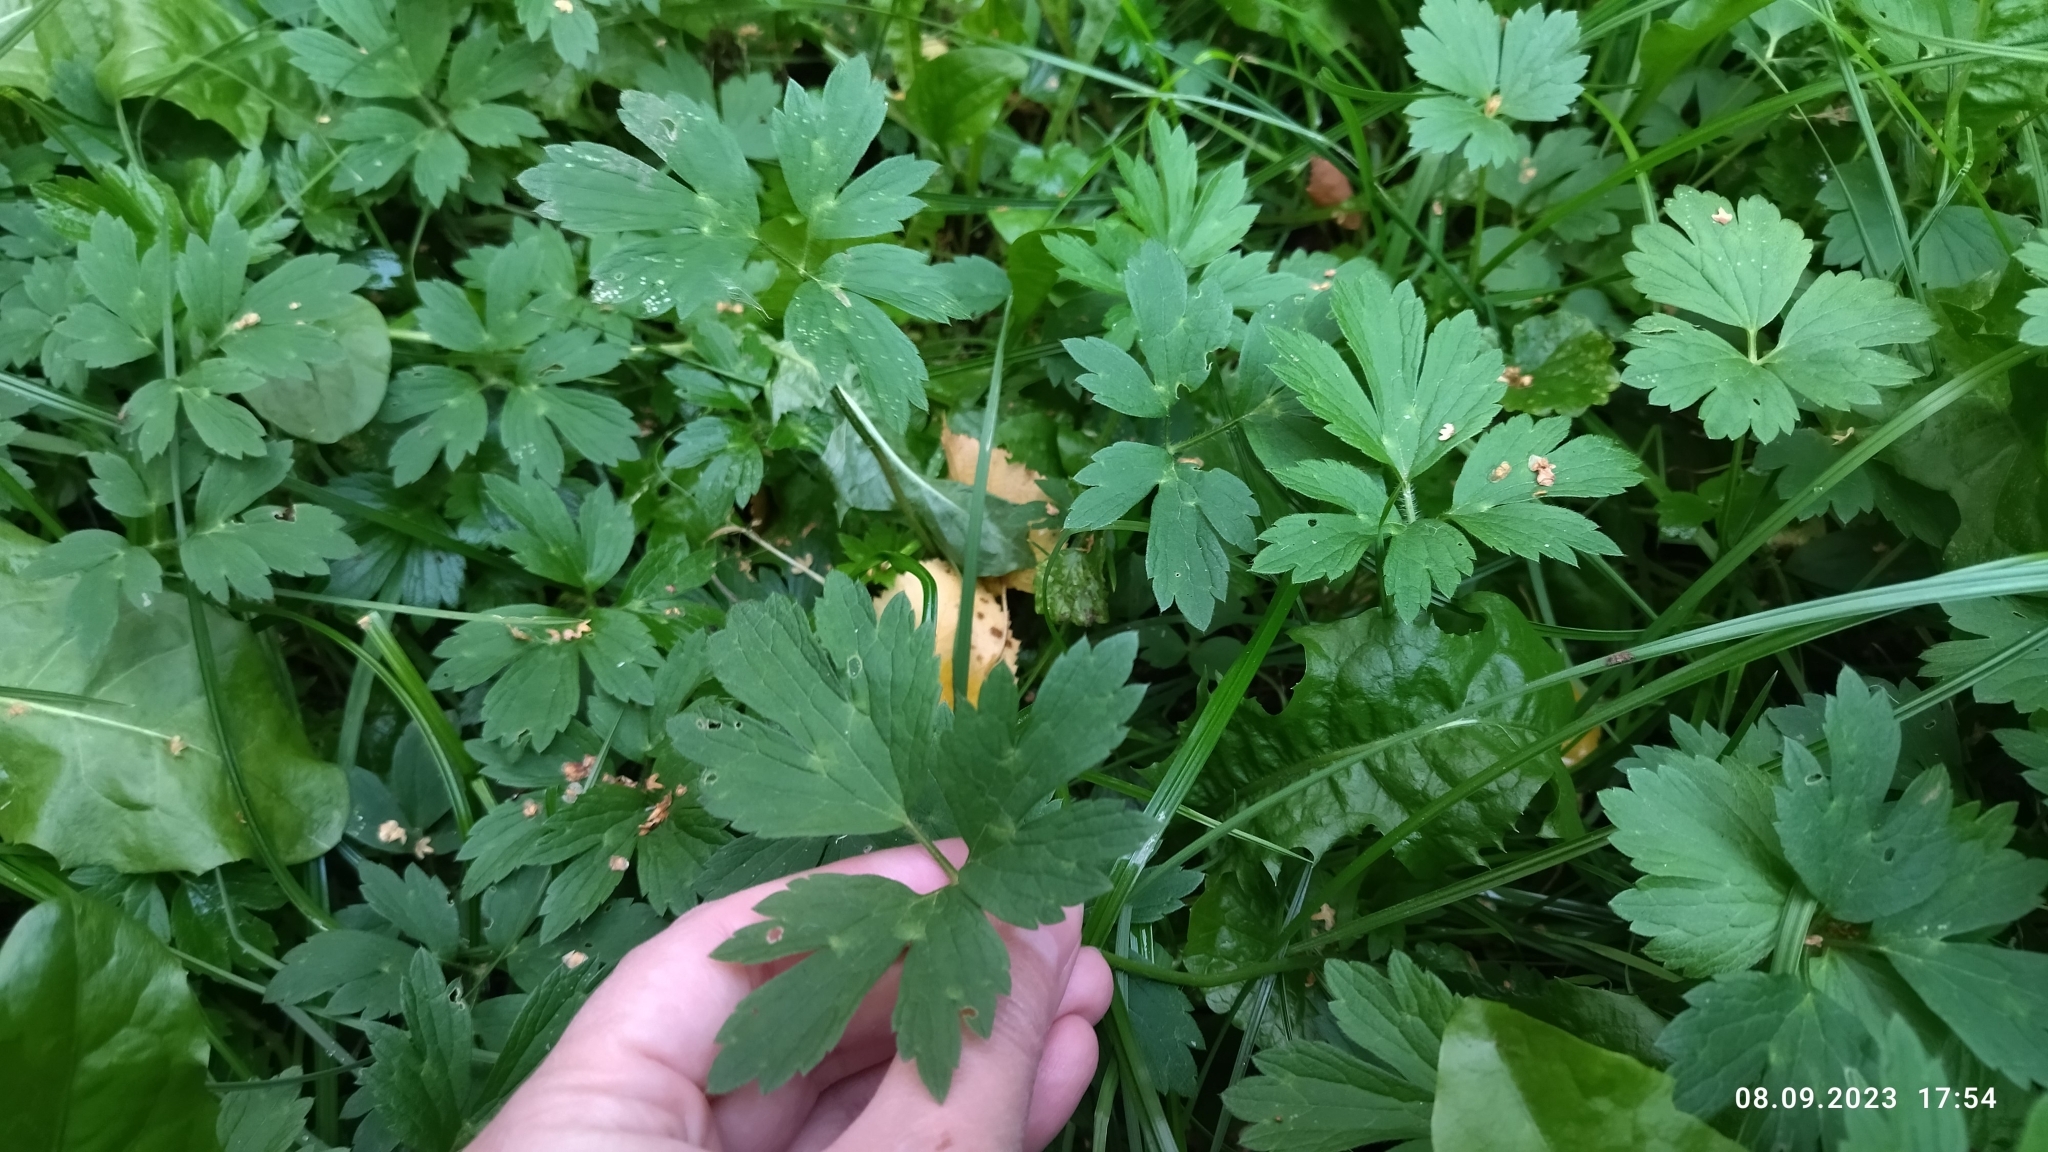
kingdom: Plantae
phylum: Tracheophyta
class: Magnoliopsida
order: Ranunculales
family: Ranunculaceae
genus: Ranunculus
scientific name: Ranunculus repens
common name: Creeping buttercup
